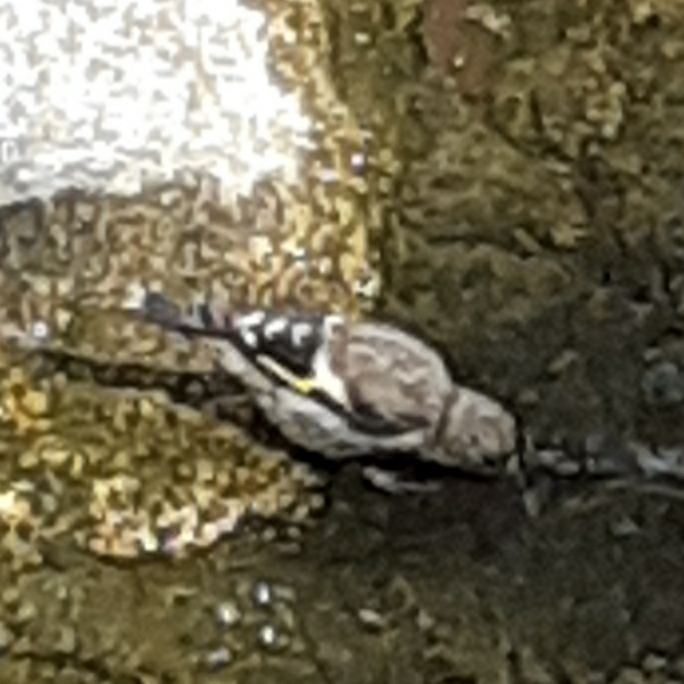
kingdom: Animalia
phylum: Chordata
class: Aves
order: Passeriformes
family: Fringillidae
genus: Carduelis
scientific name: Carduelis carduelis
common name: European goldfinch
